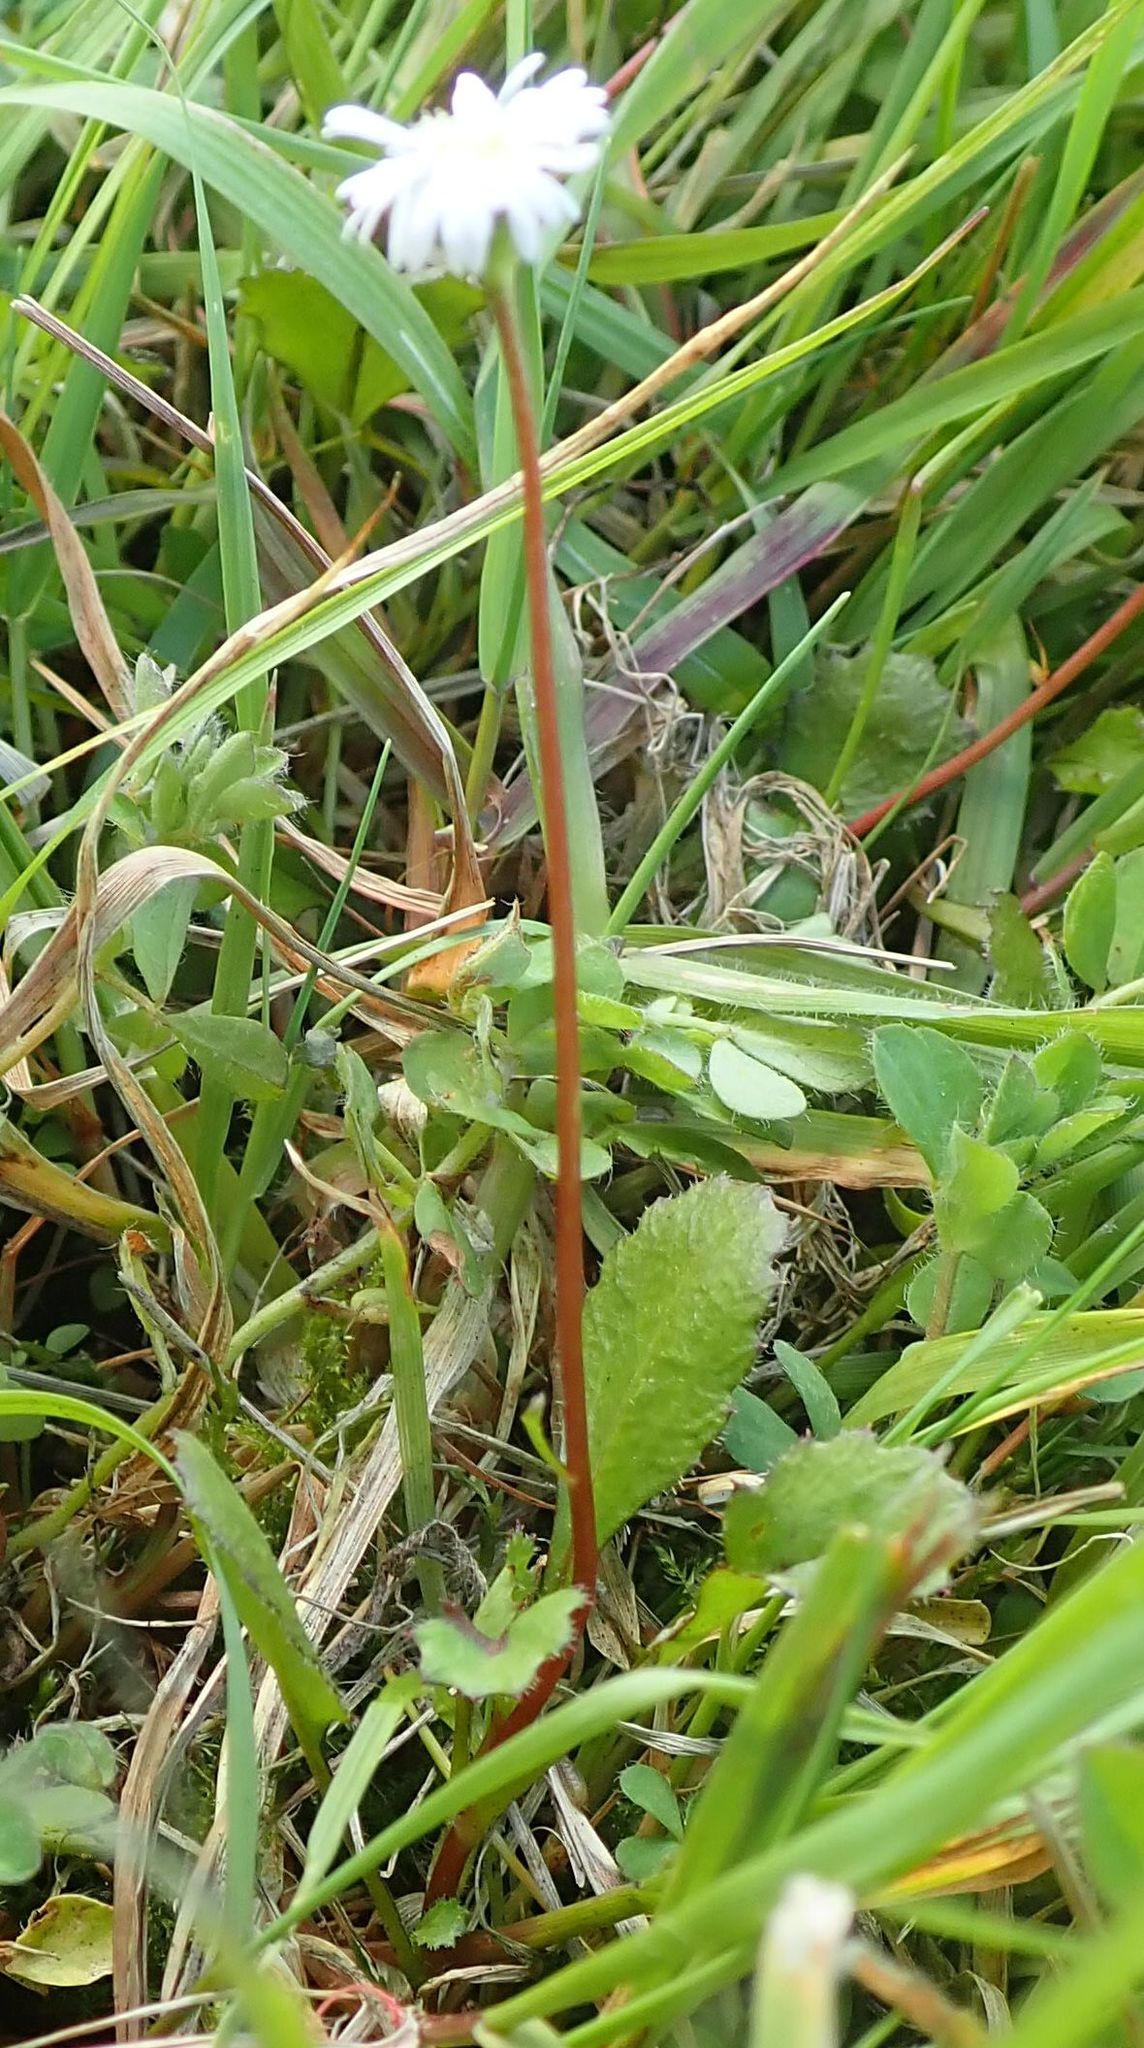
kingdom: Plantae
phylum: Tracheophyta
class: Magnoliopsida
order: Asterales
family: Asteraceae
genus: Lagenophora
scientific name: Lagenophora barkeri
